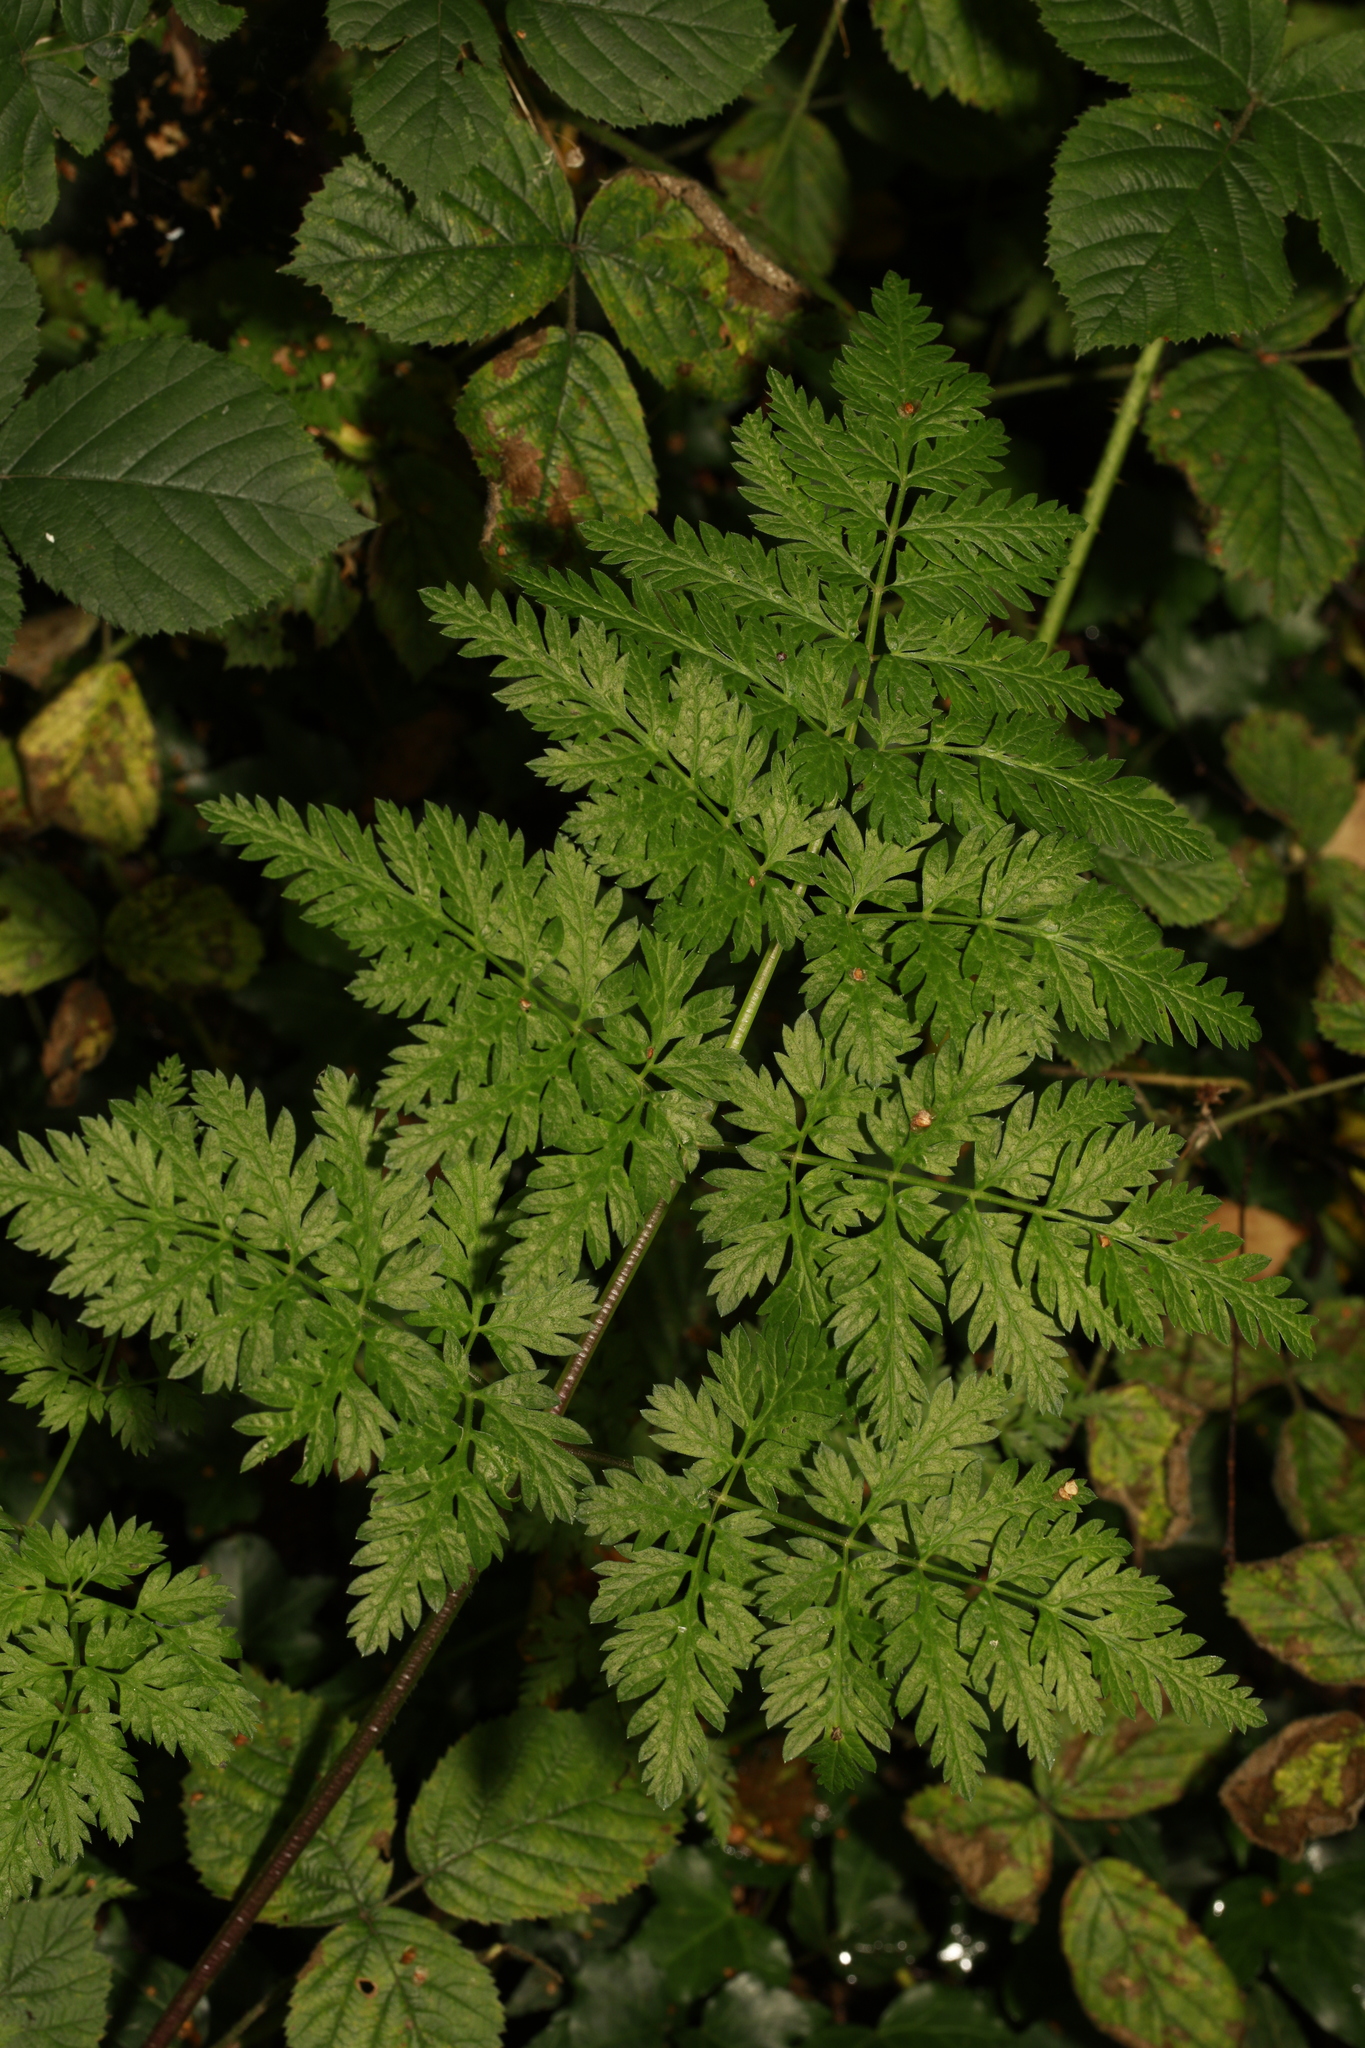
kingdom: Plantae
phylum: Tracheophyta
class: Magnoliopsida
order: Apiales
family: Apiaceae
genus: Anthriscus
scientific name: Anthriscus sylvestris
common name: Cow parsley
